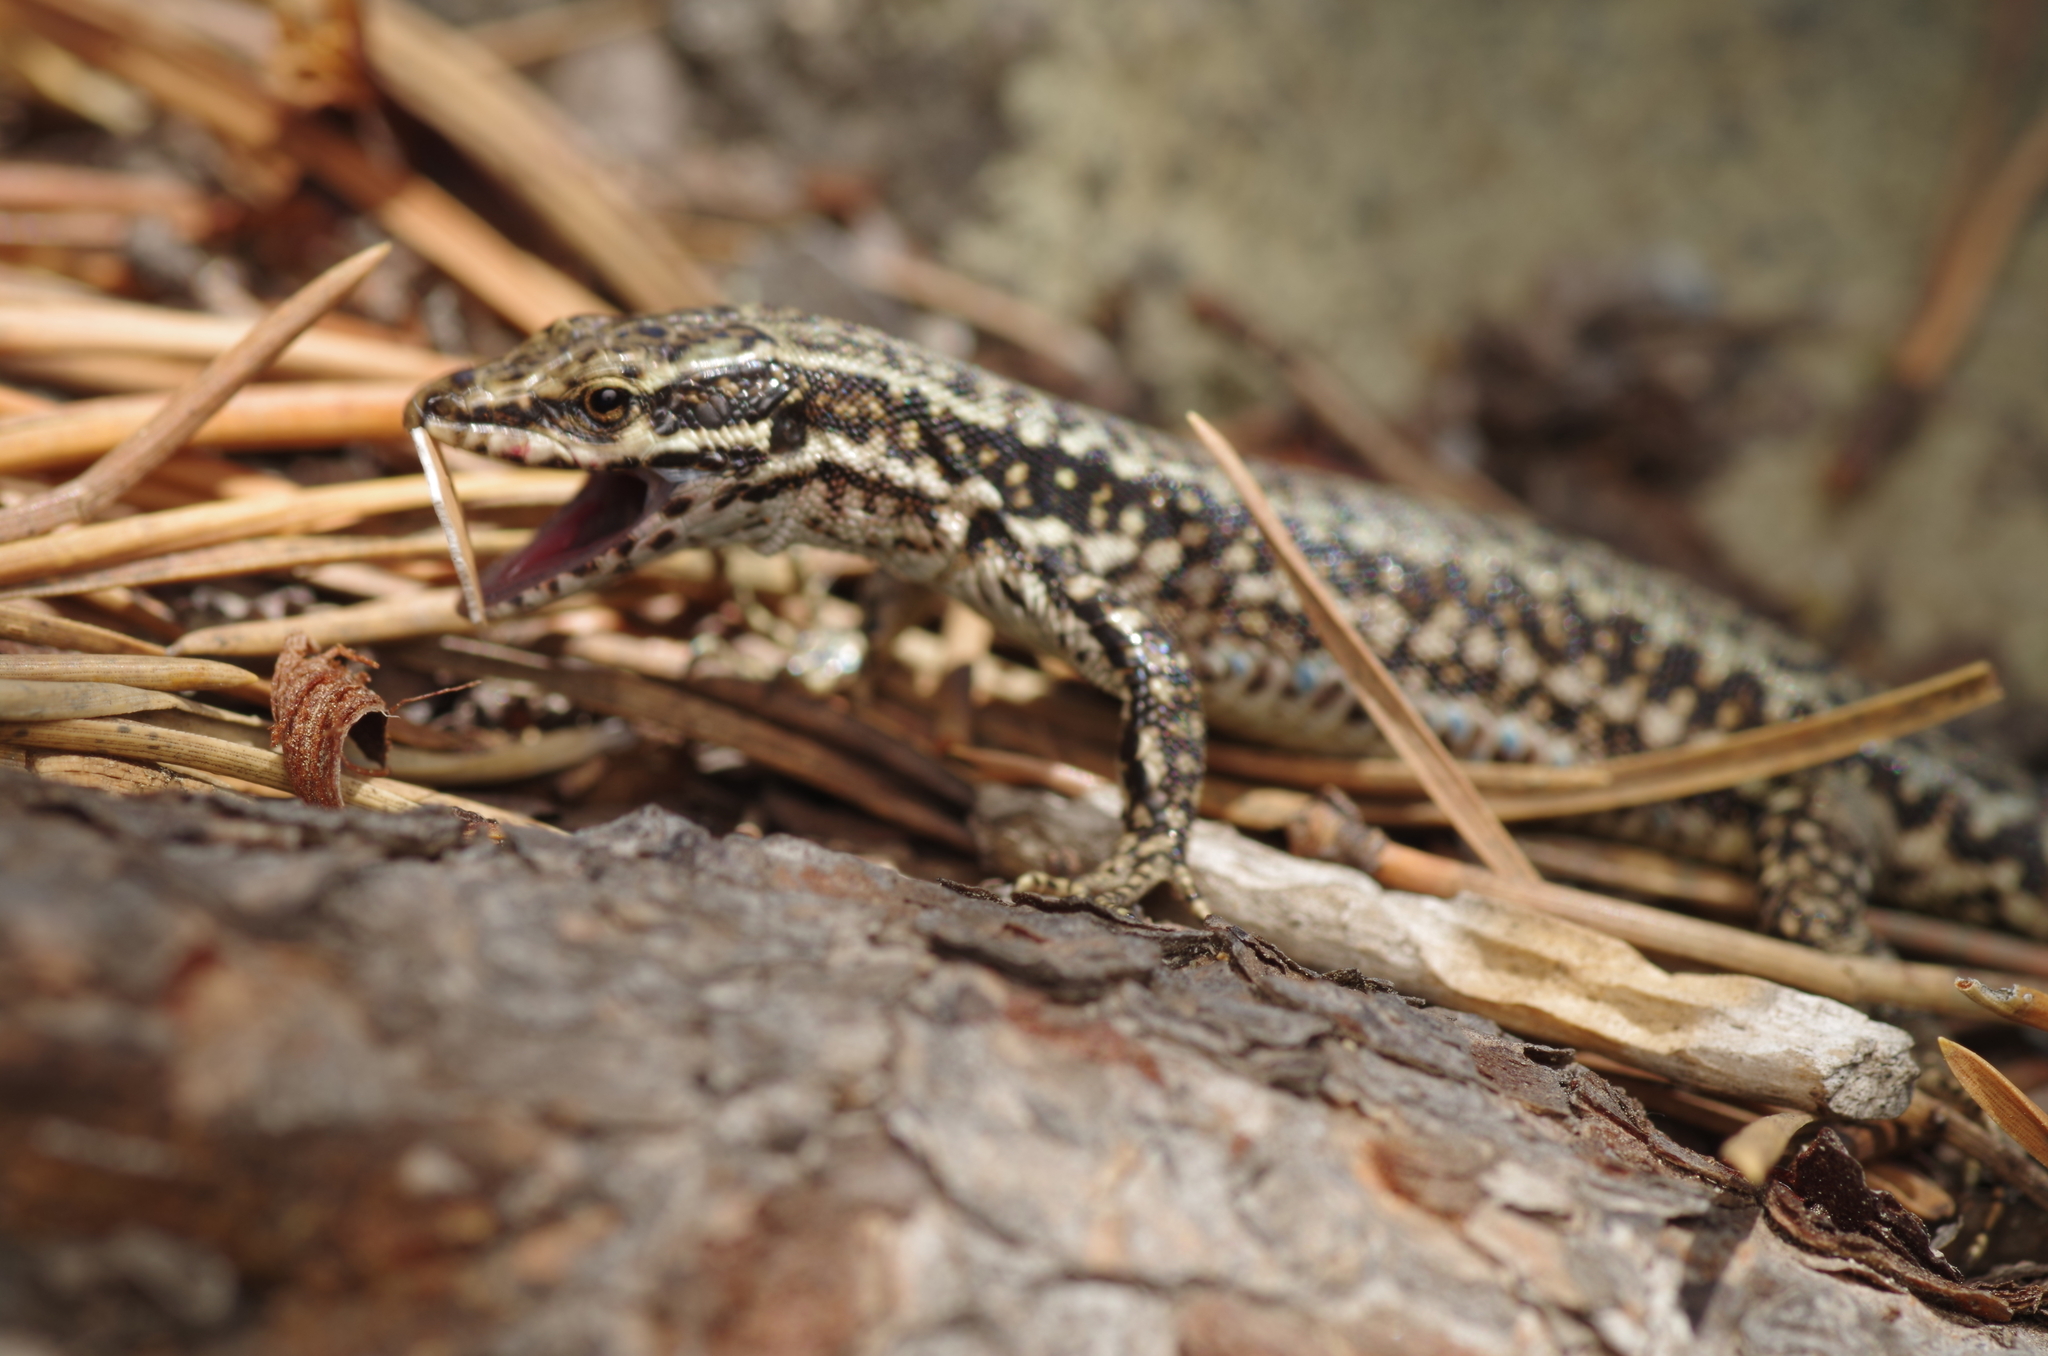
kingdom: Animalia
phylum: Chordata
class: Squamata
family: Lacertidae
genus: Podarcis
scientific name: Podarcis muralis
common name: Common wall lizard
